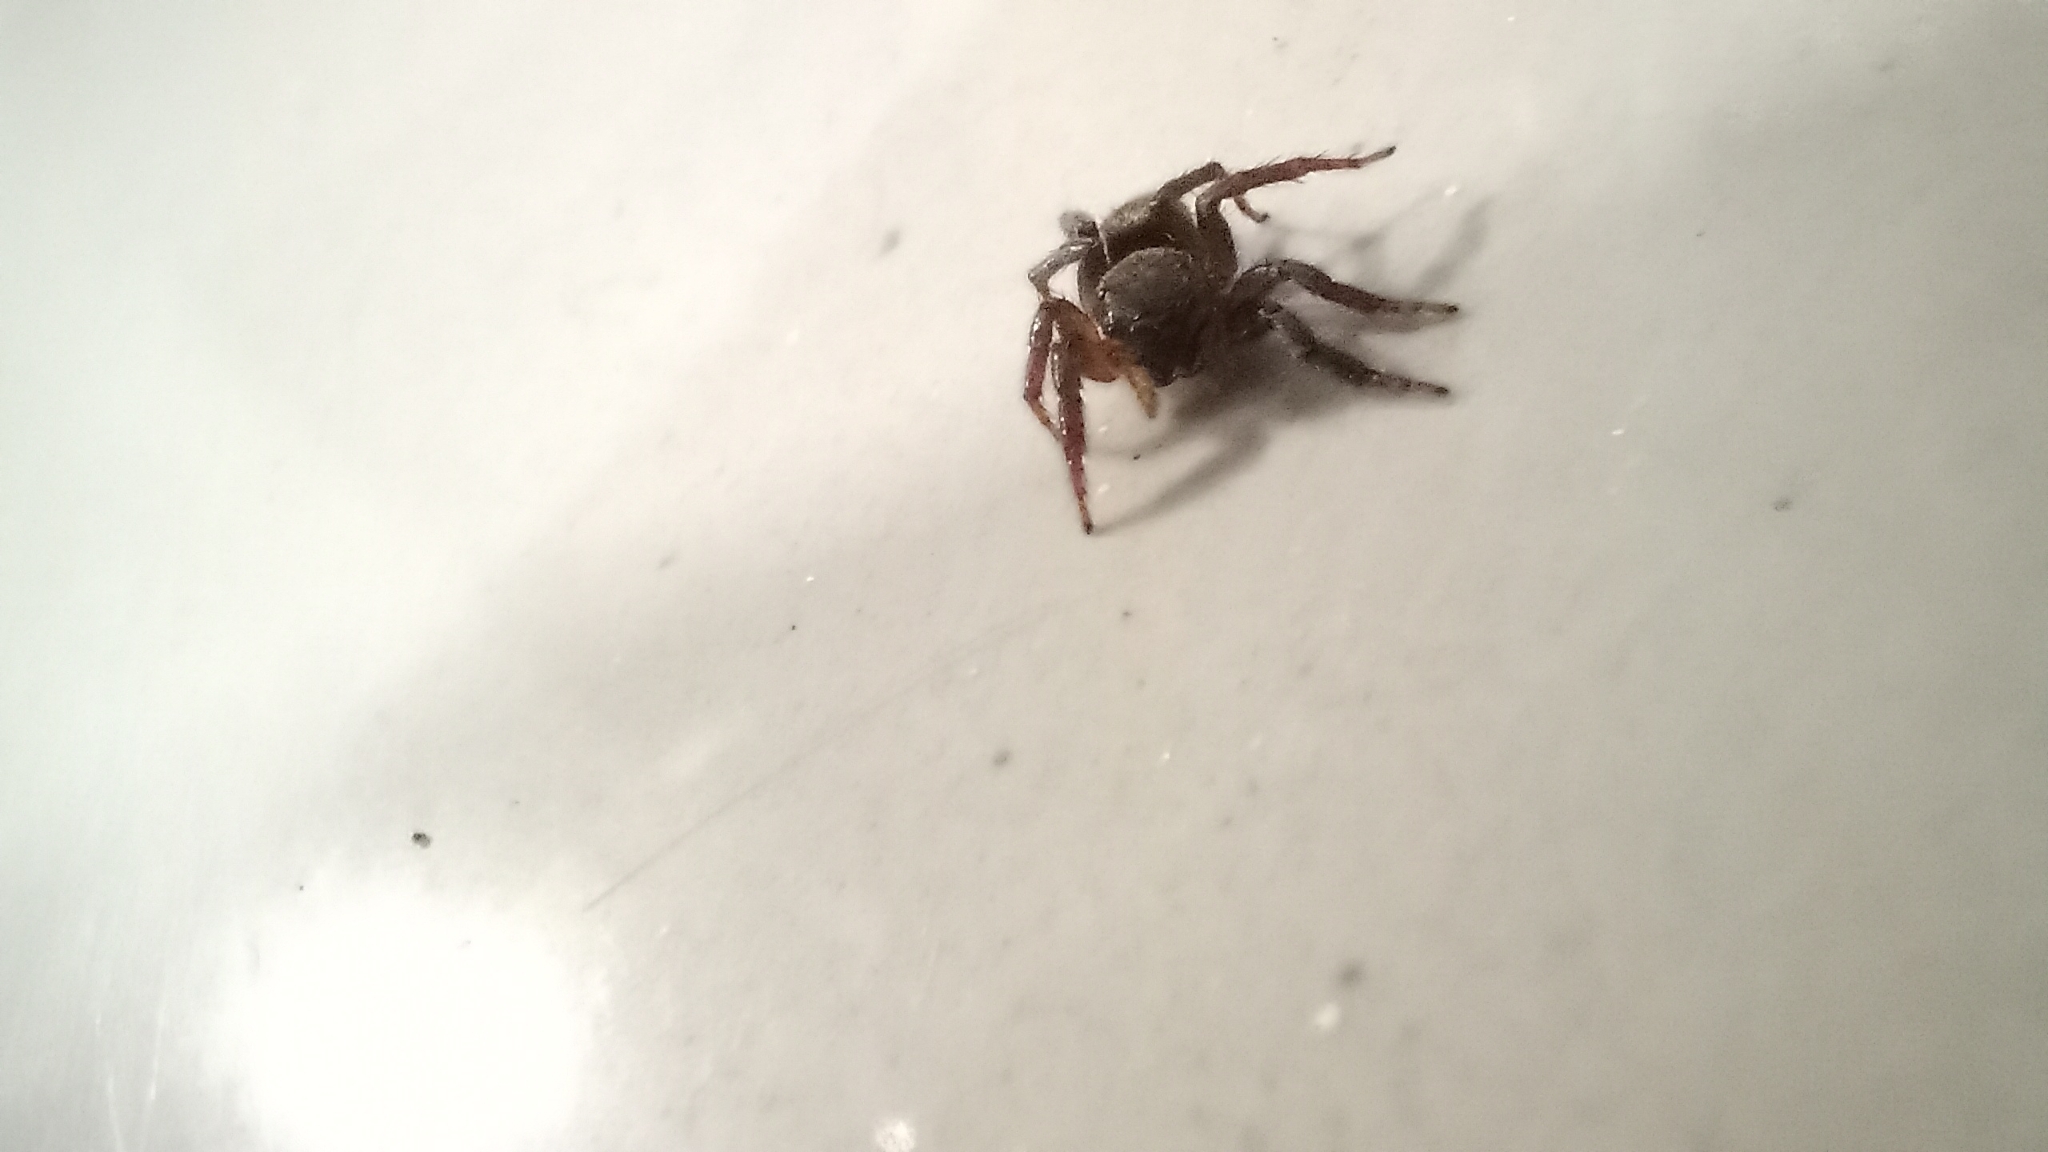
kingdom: Animalia
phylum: Arthropoda
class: Arachnida
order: Araneae
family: Salticidae
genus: Hasarius
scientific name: Hasarius adansoni
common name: Jumping spider
